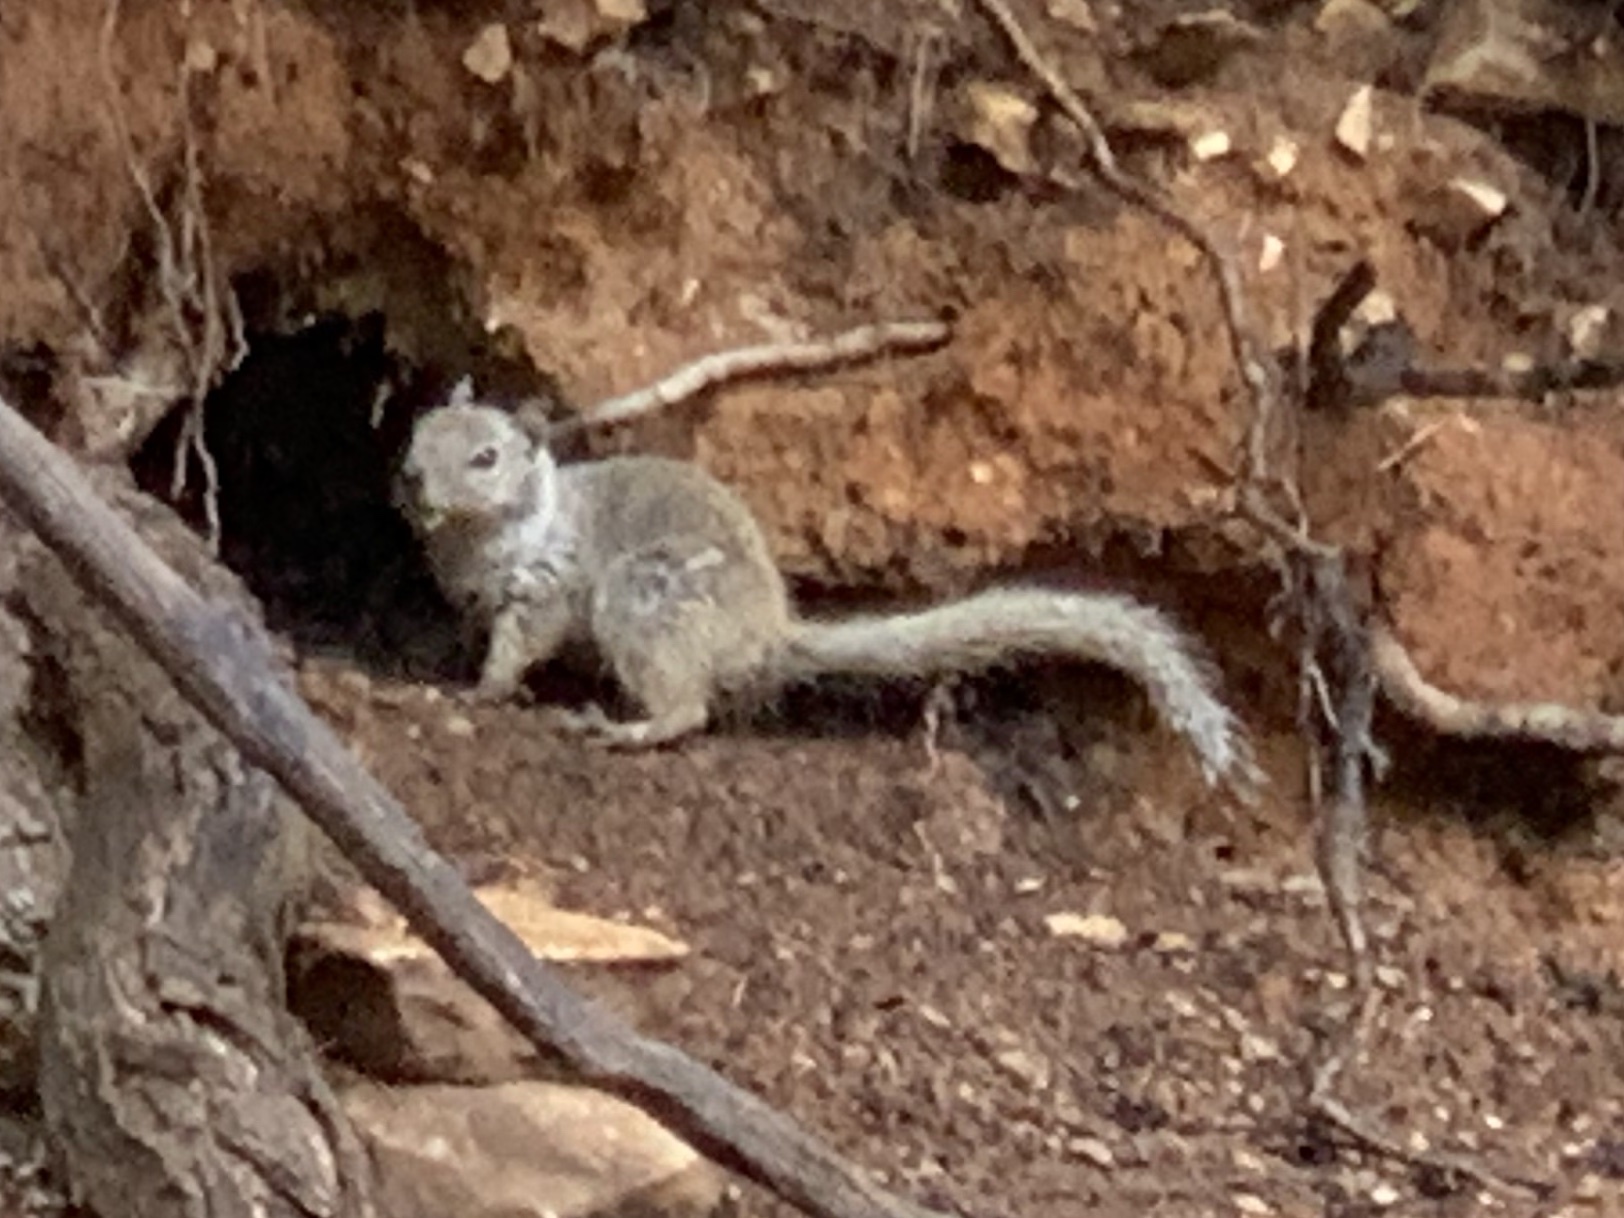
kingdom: Animalia
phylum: Chordata
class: Mammalia
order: Rodentia
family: Sciuridae
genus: Otospermophilus
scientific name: Otospermophilus variegatus
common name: Rock squirrel
